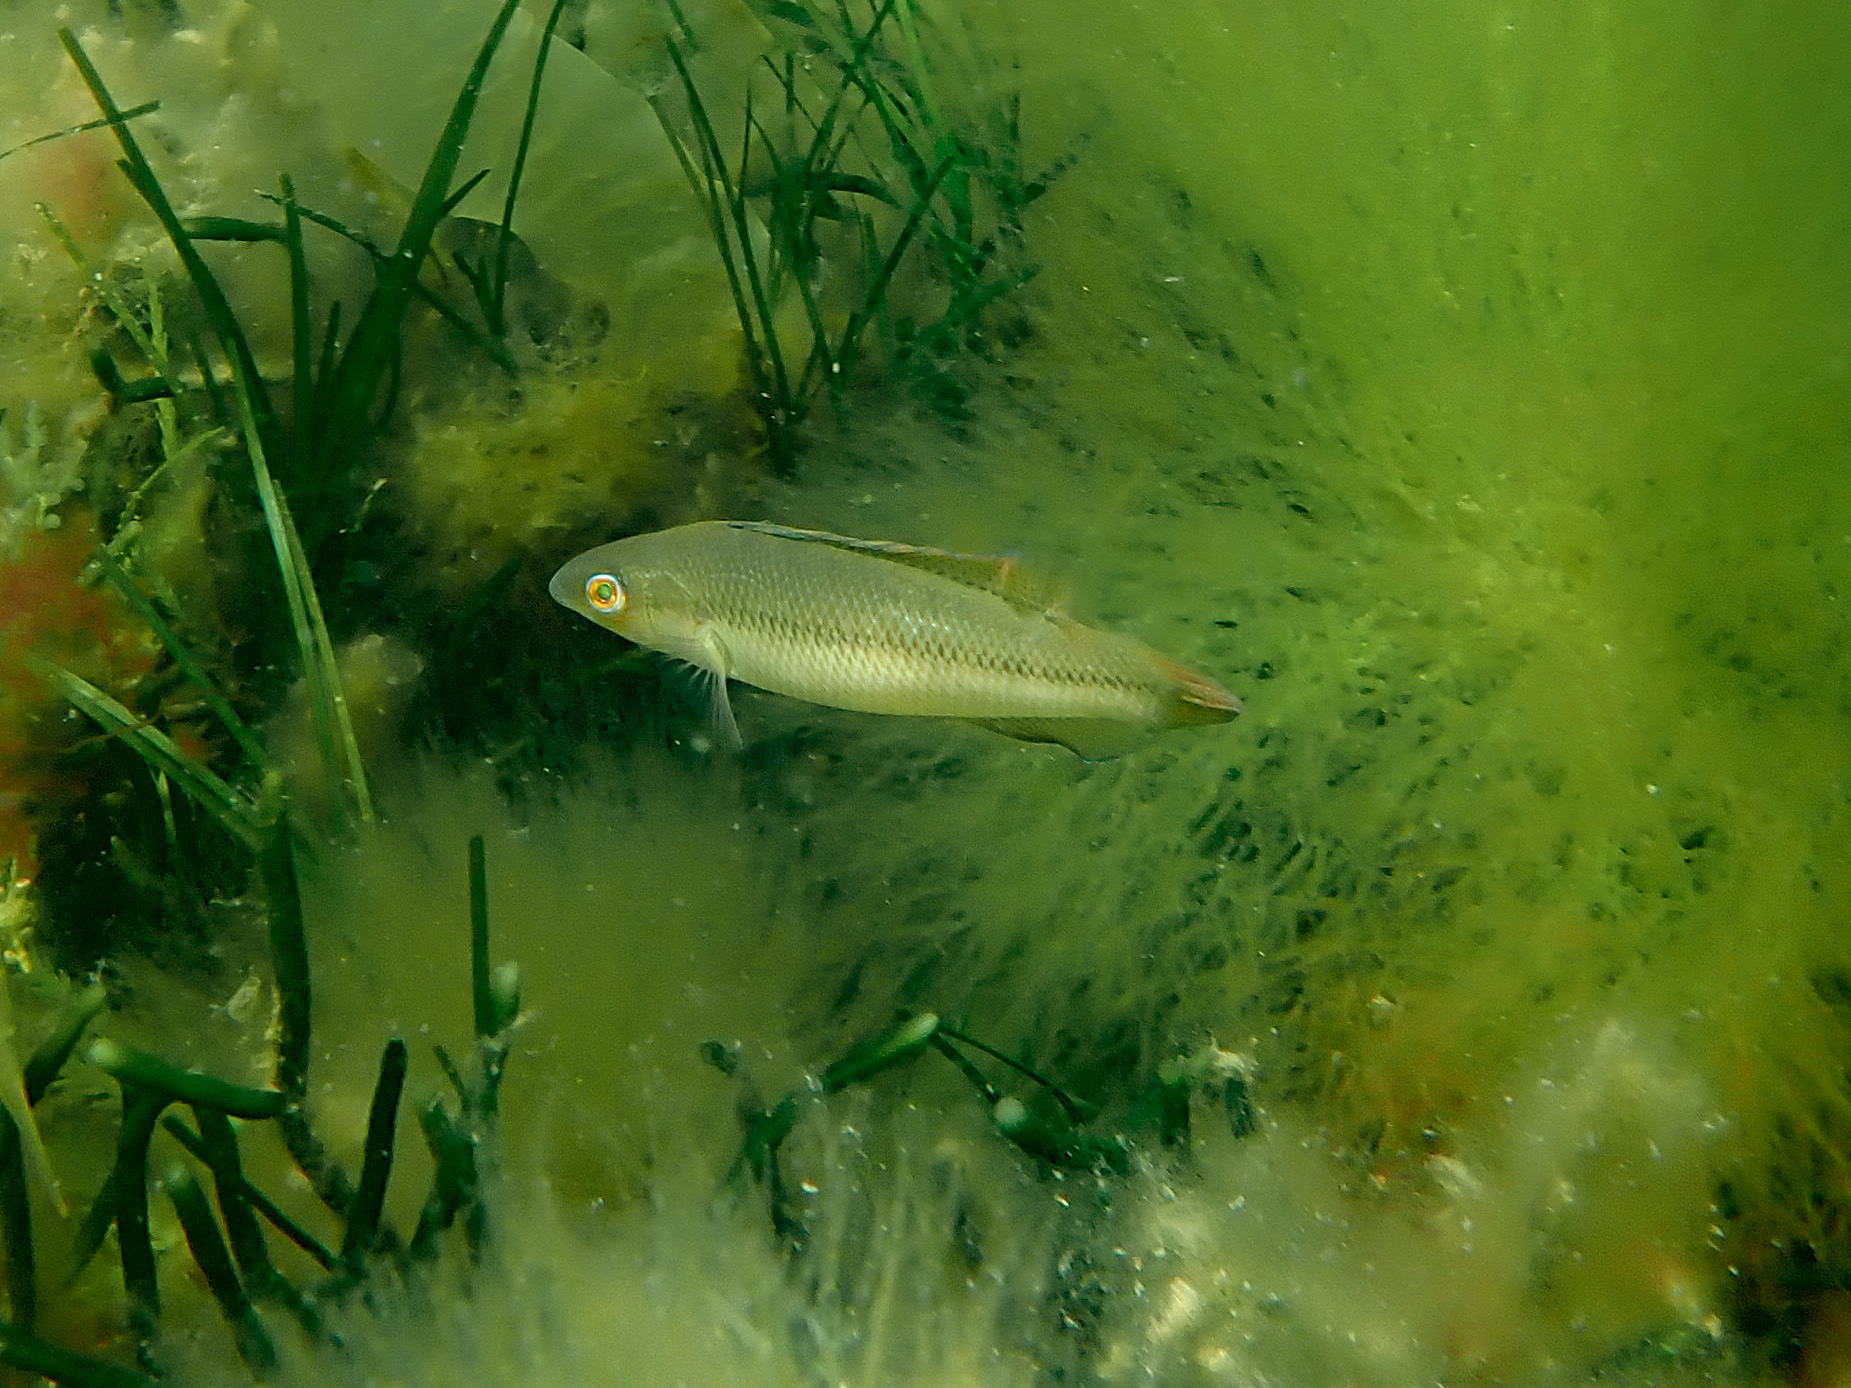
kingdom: Animalia
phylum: Chordata
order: Perciformes
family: Odacidae
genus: Neoodax
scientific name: Neoodax balteatus
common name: Ground mullet
